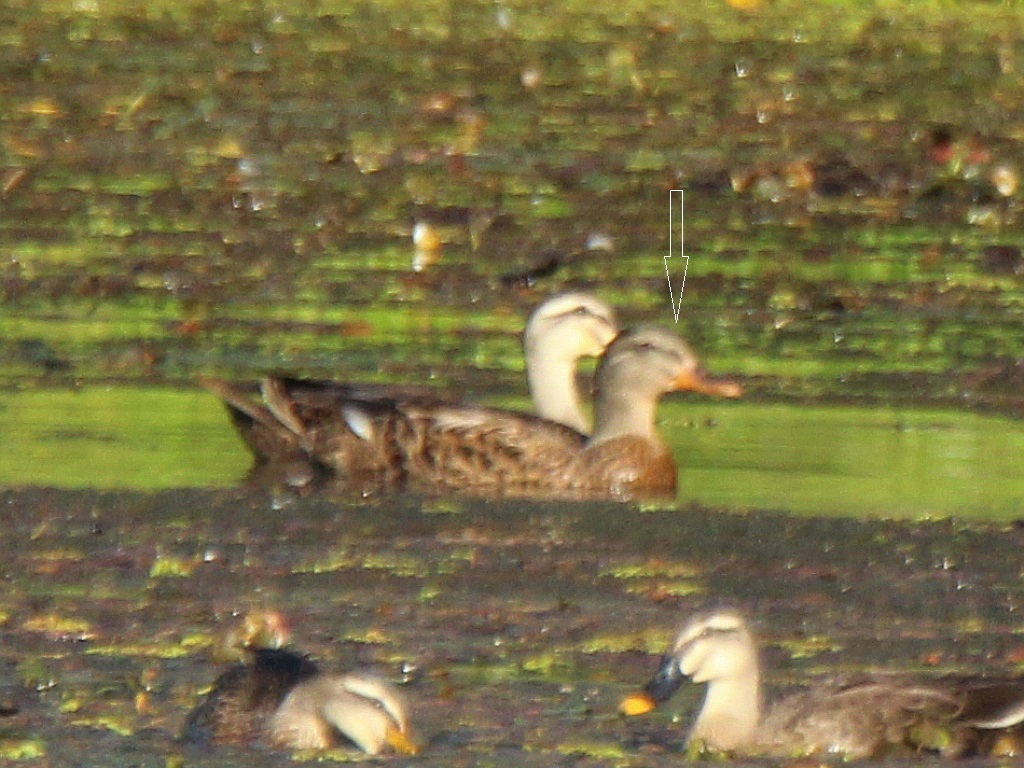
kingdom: Animalia
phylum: Chordata
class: Aves
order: Anseriformes
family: Anatidae
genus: Anas
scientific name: Anas platyrhynchos
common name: Mallard
